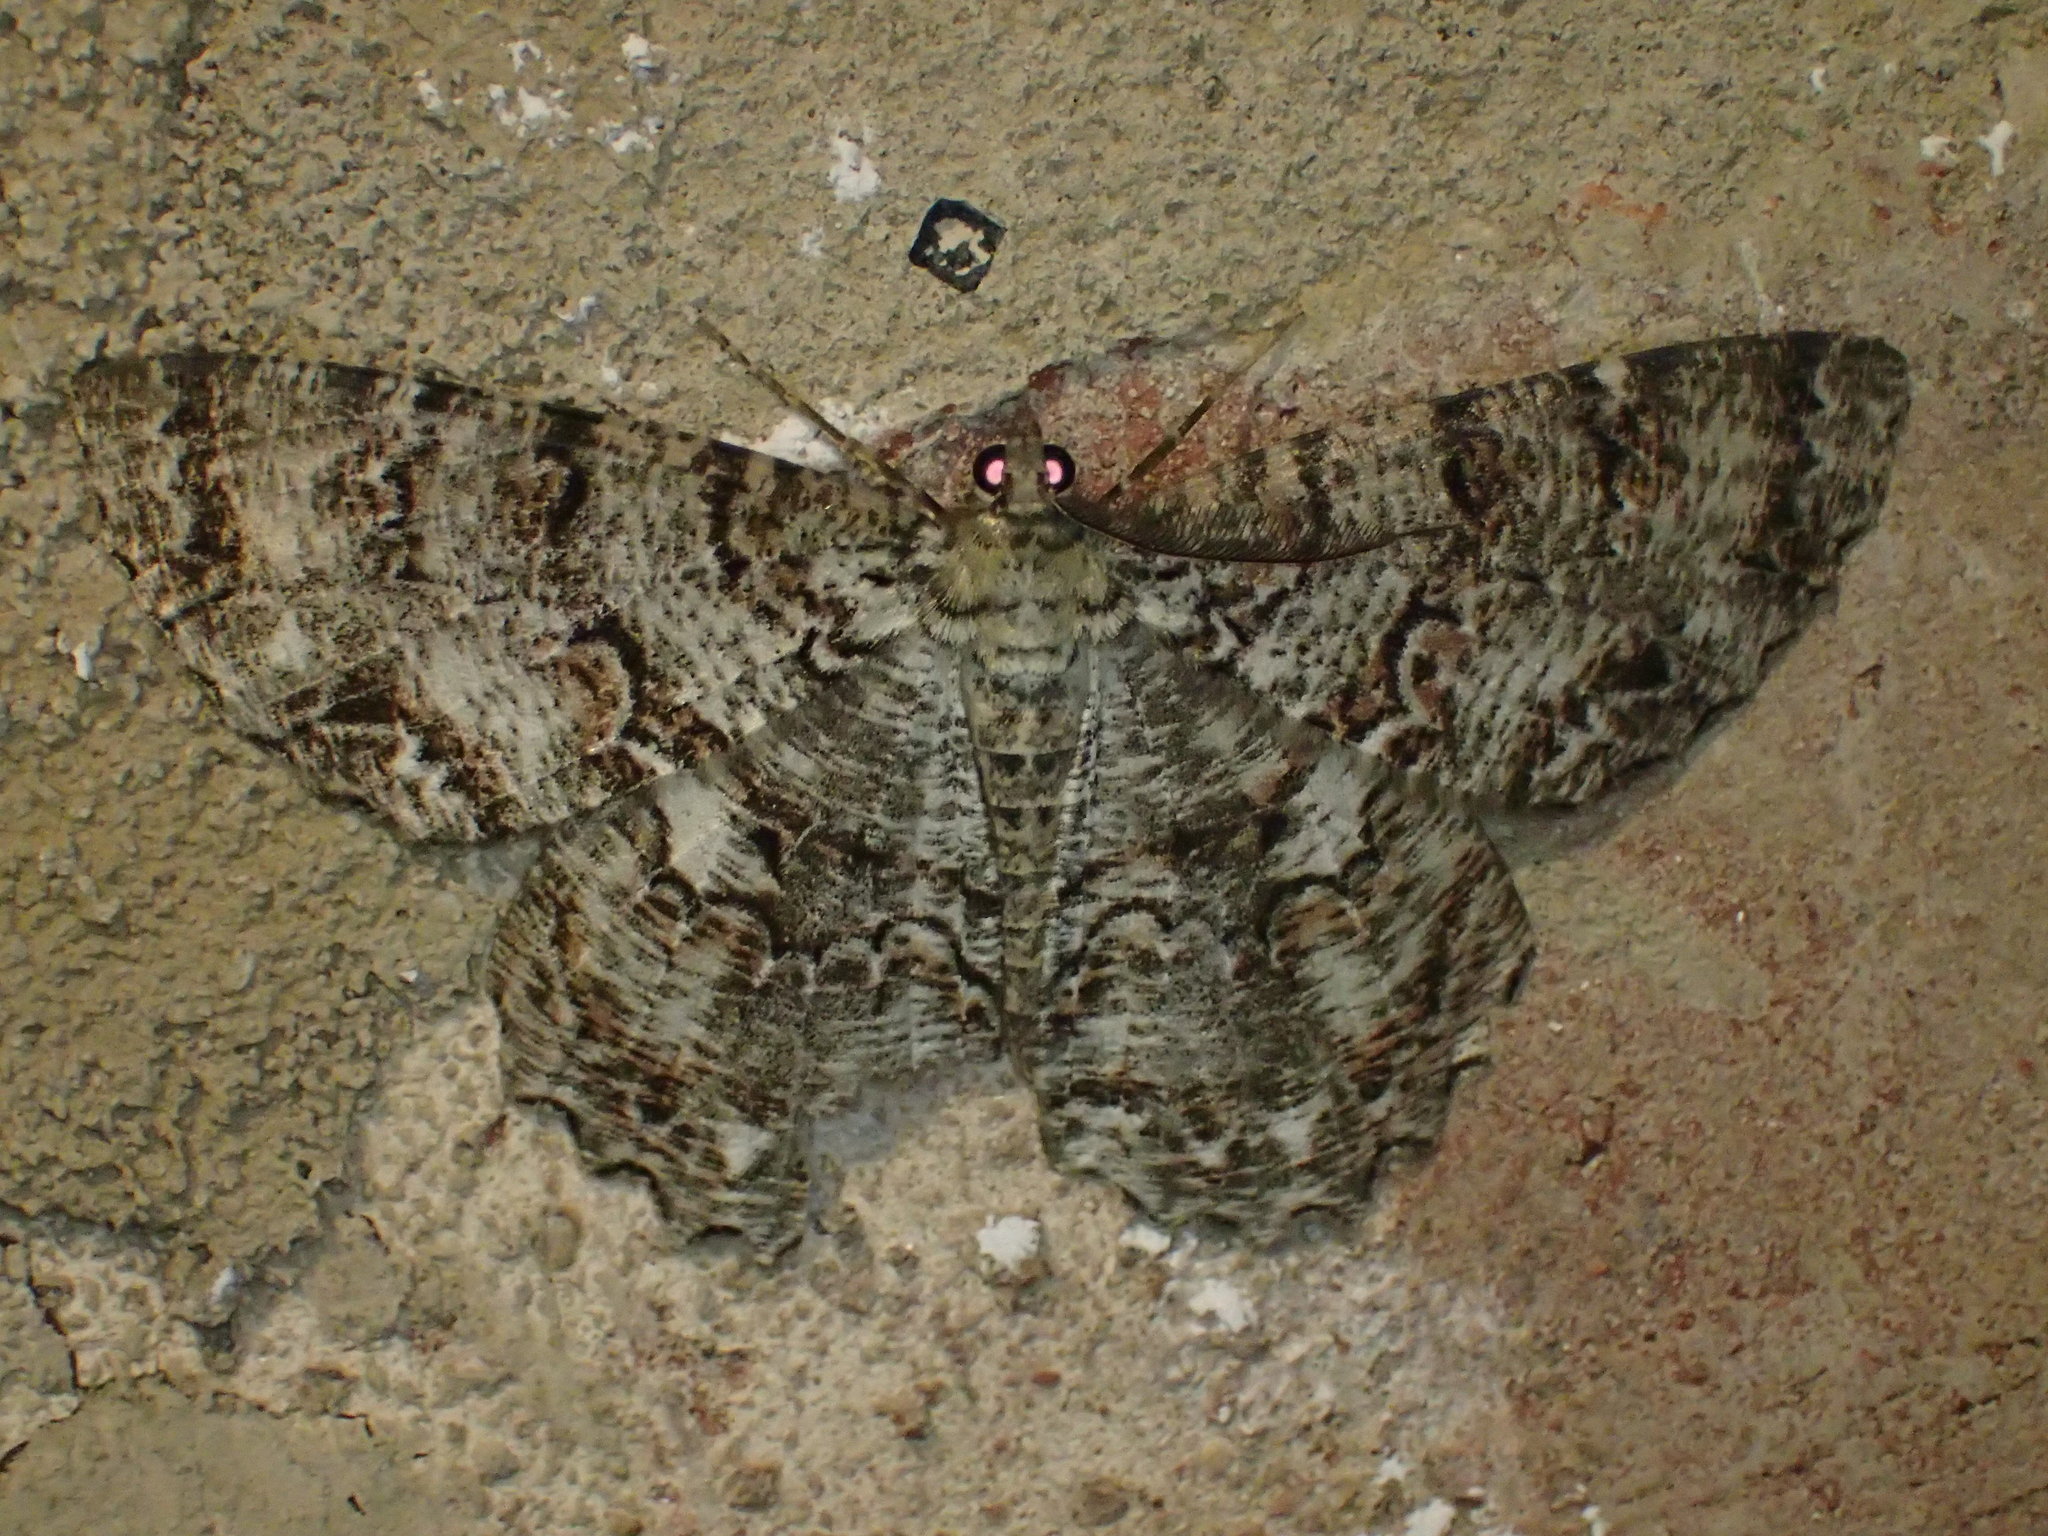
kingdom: Animalia
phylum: Arthropoda
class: Insecta
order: Lepidoptera
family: Geometridae
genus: Epimecis
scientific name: Epimecis hortaria
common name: Tulip-tree beauty
